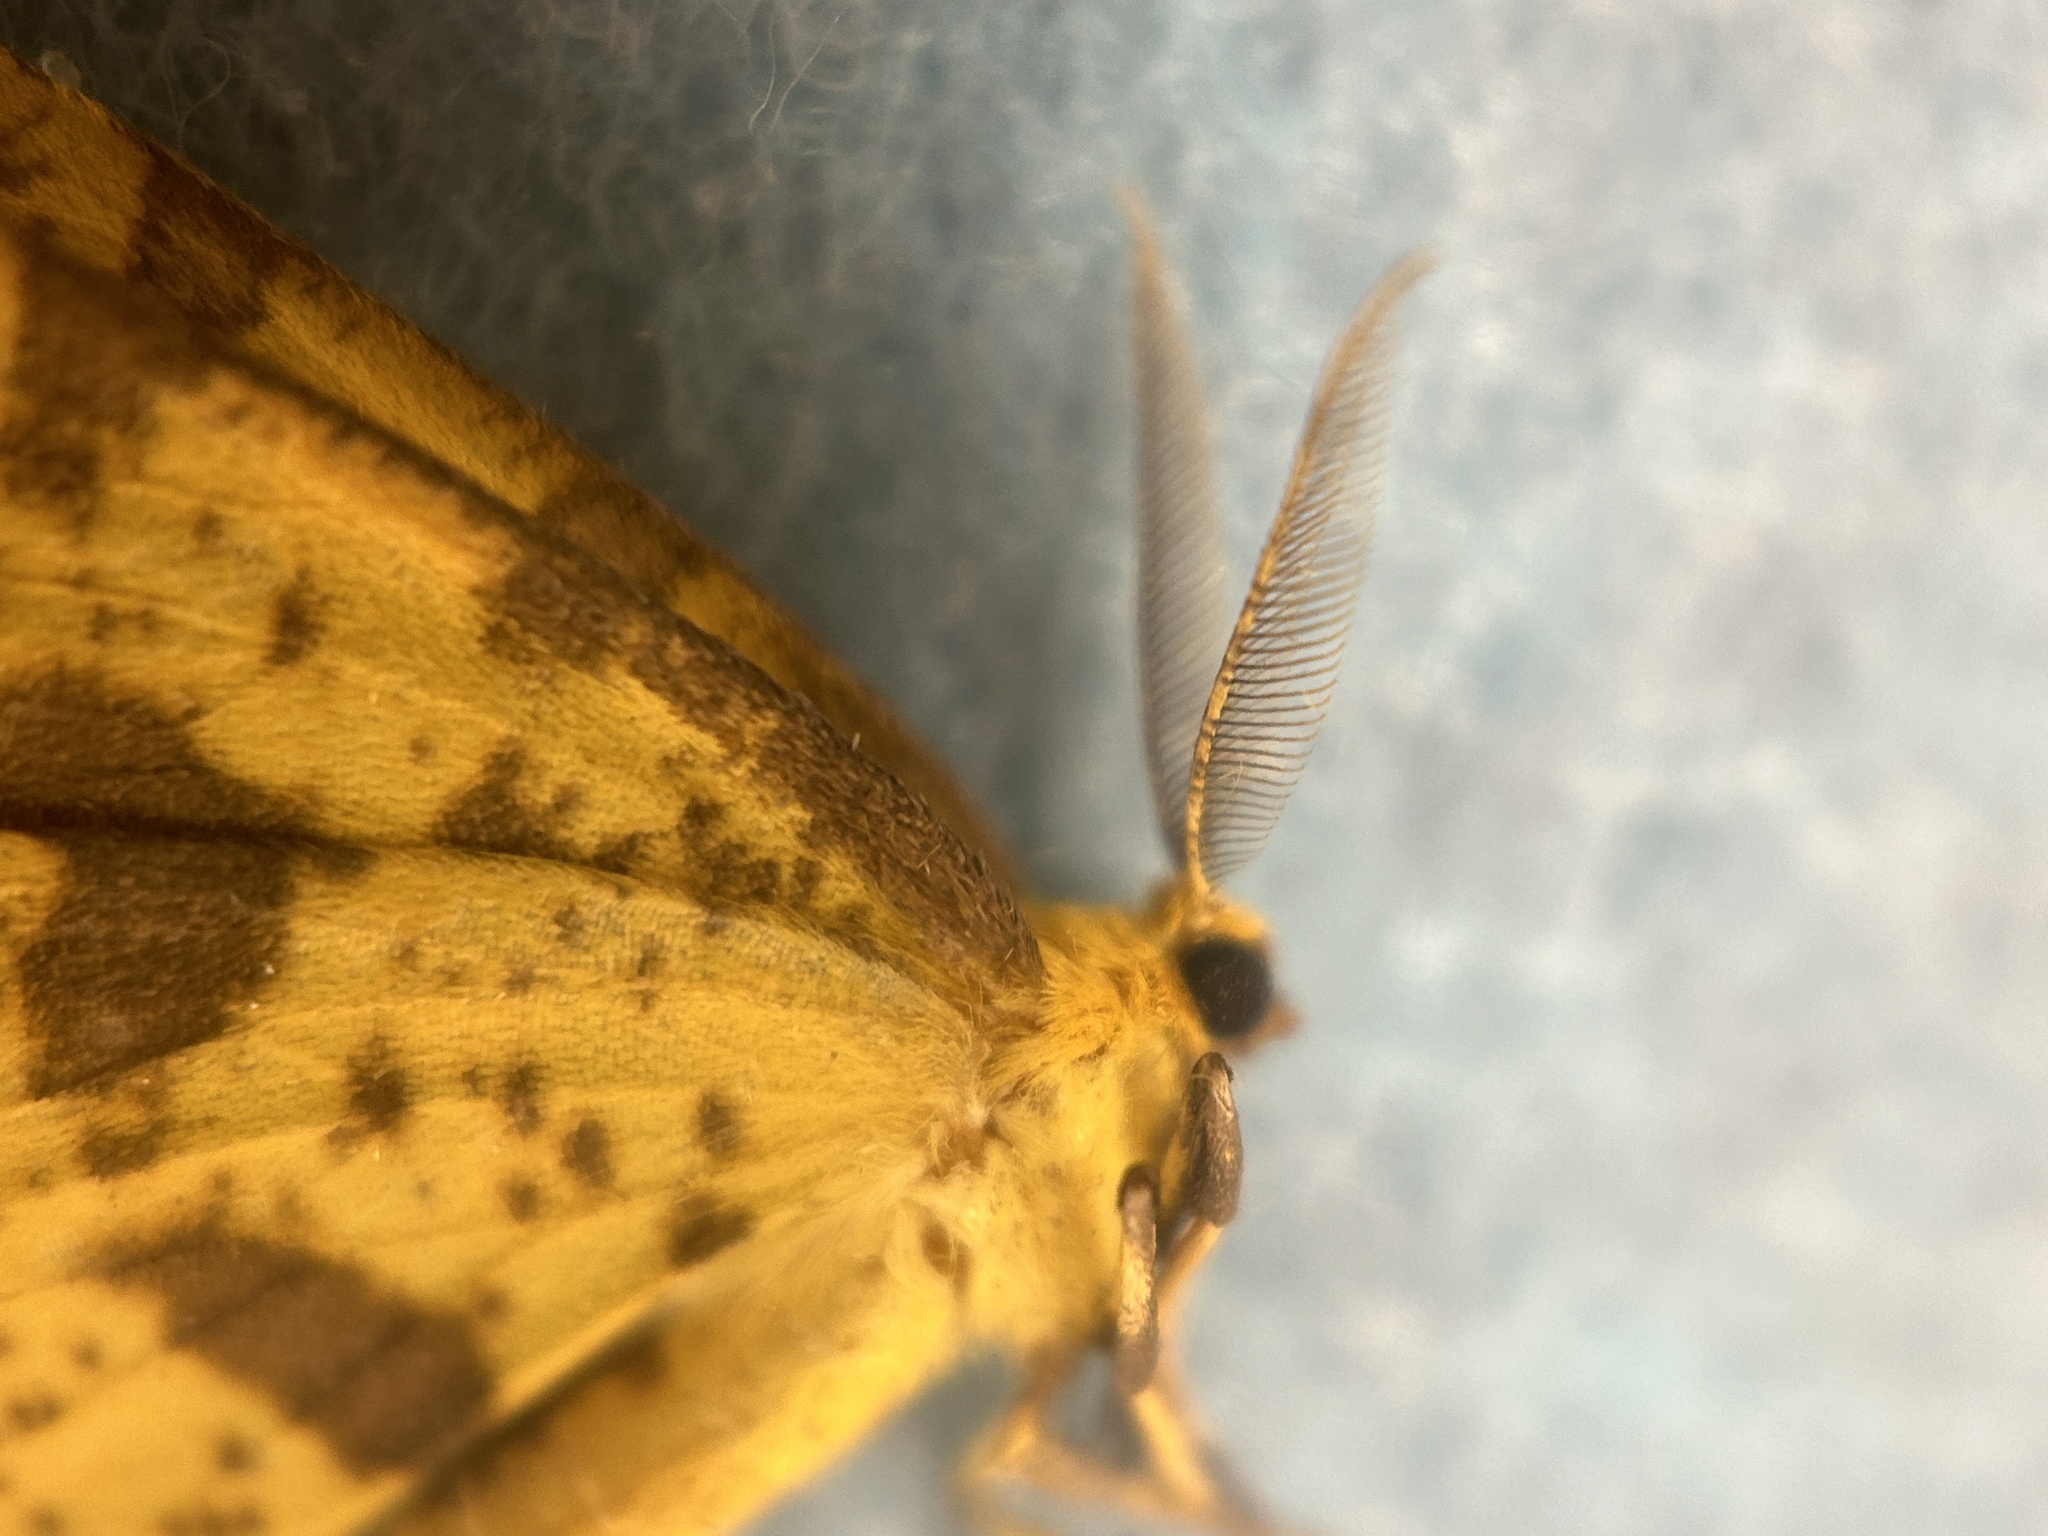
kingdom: Animalia
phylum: Arthropoda
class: Insecta
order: Lepidoptera
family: Geometridae
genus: Xanthotype
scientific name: Xanthotype
